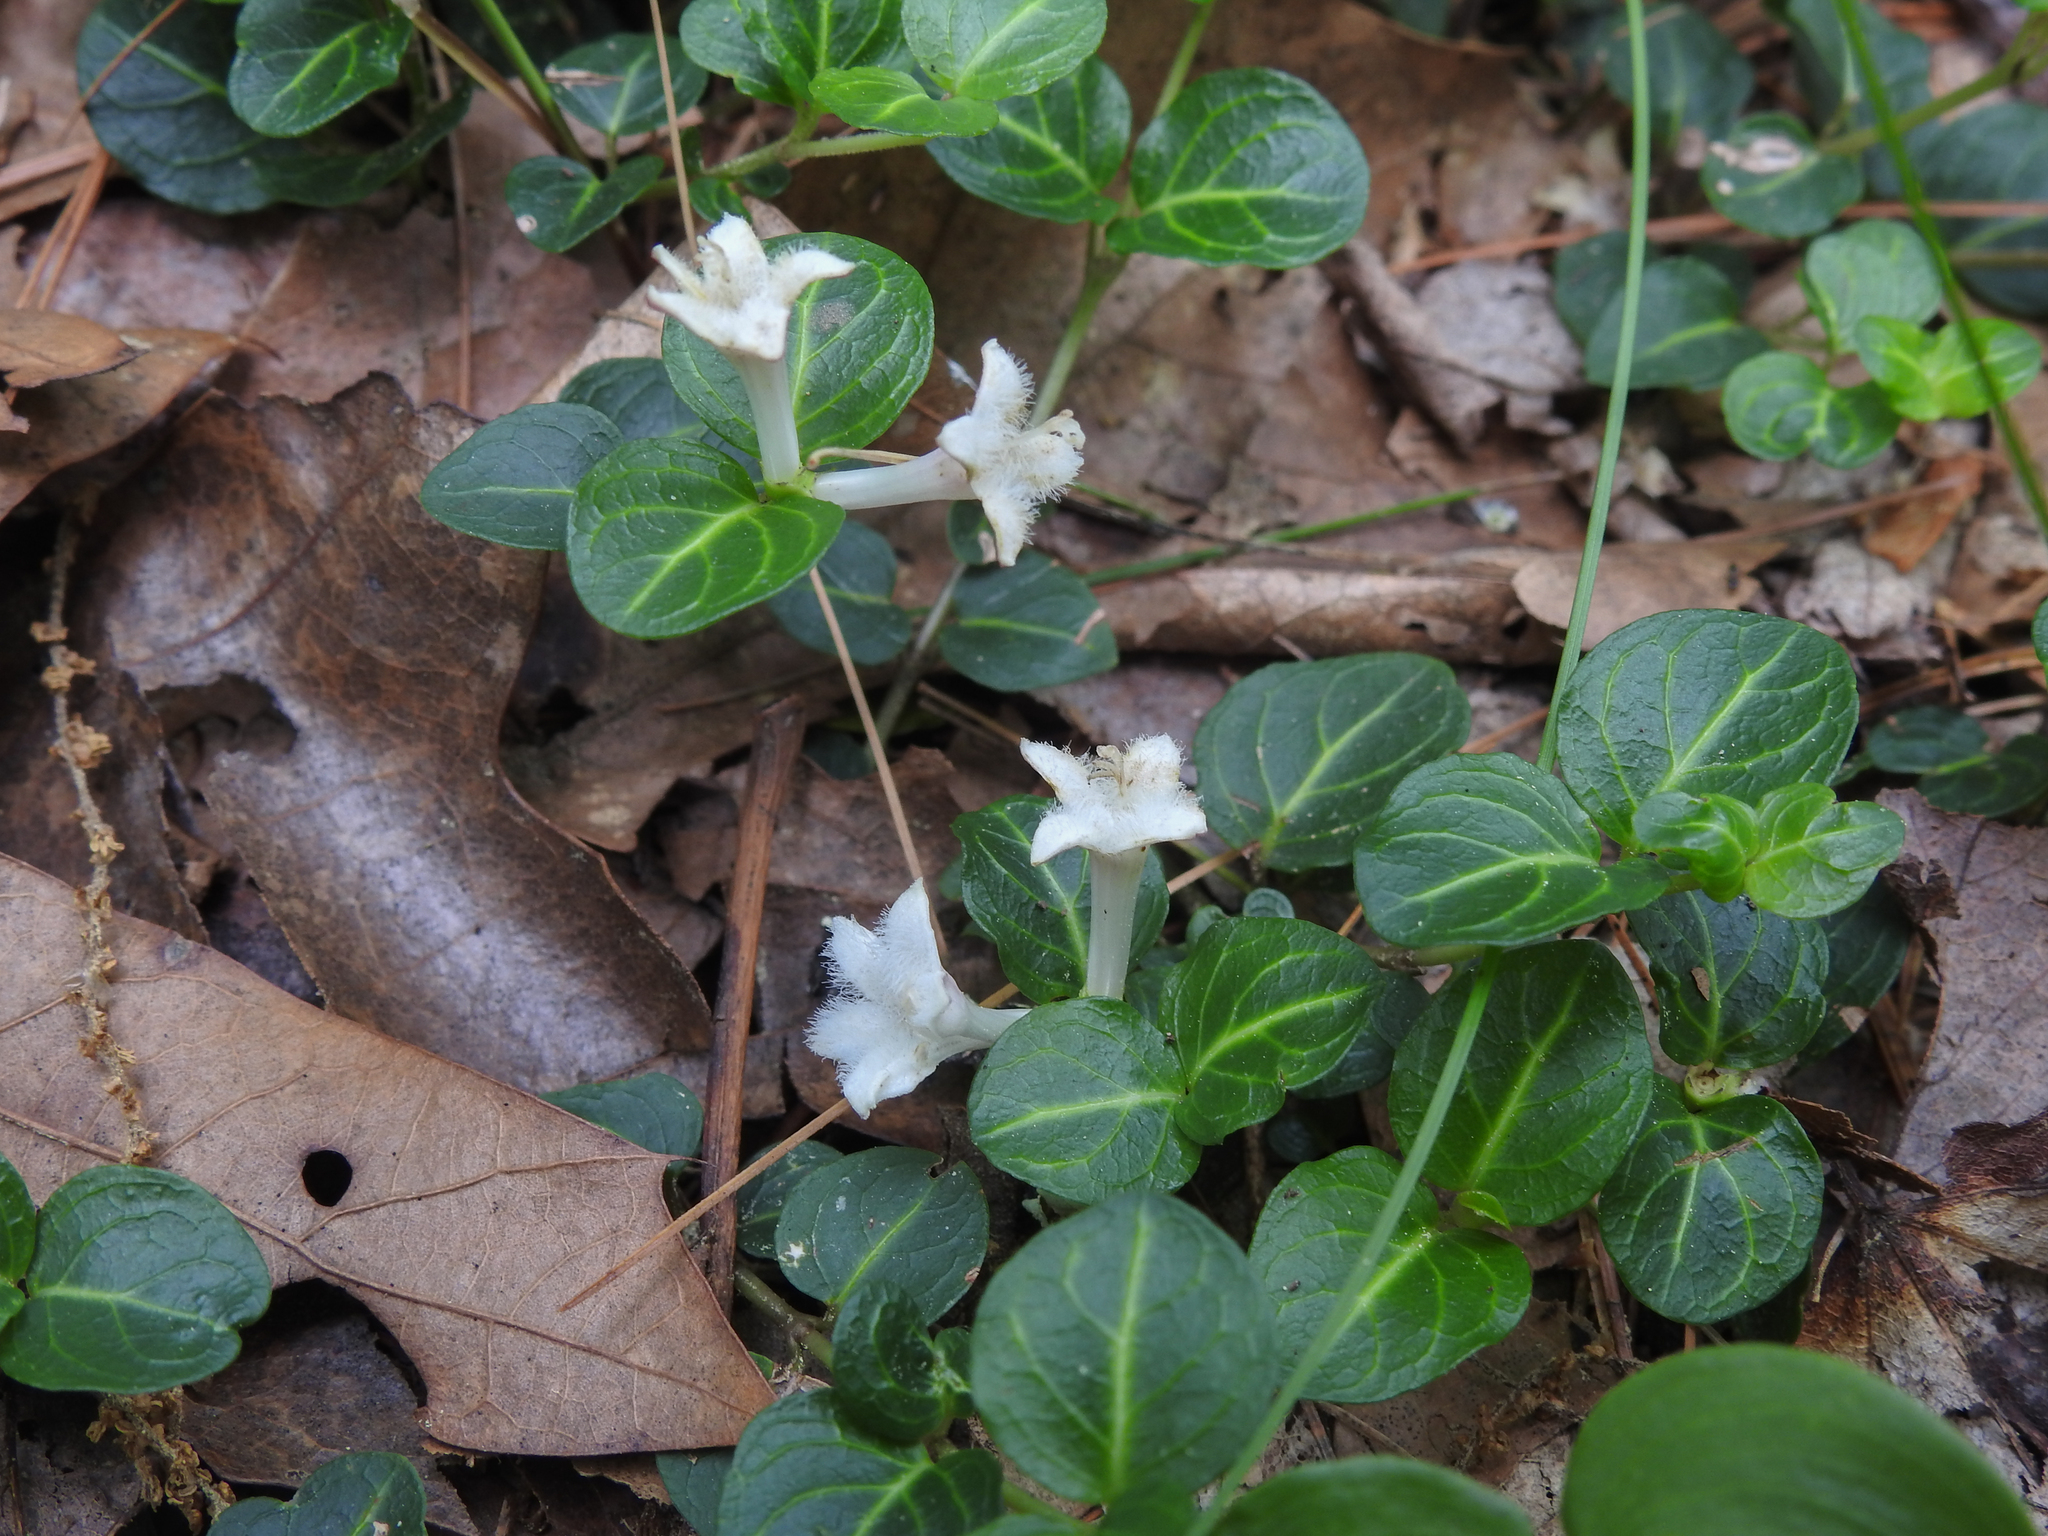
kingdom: Plantae
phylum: Tracheophyta
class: Magnoliopsida
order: Gentianales
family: Rubiaceae
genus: Mitchella
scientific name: Mitchella repens
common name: Partridge-berry
